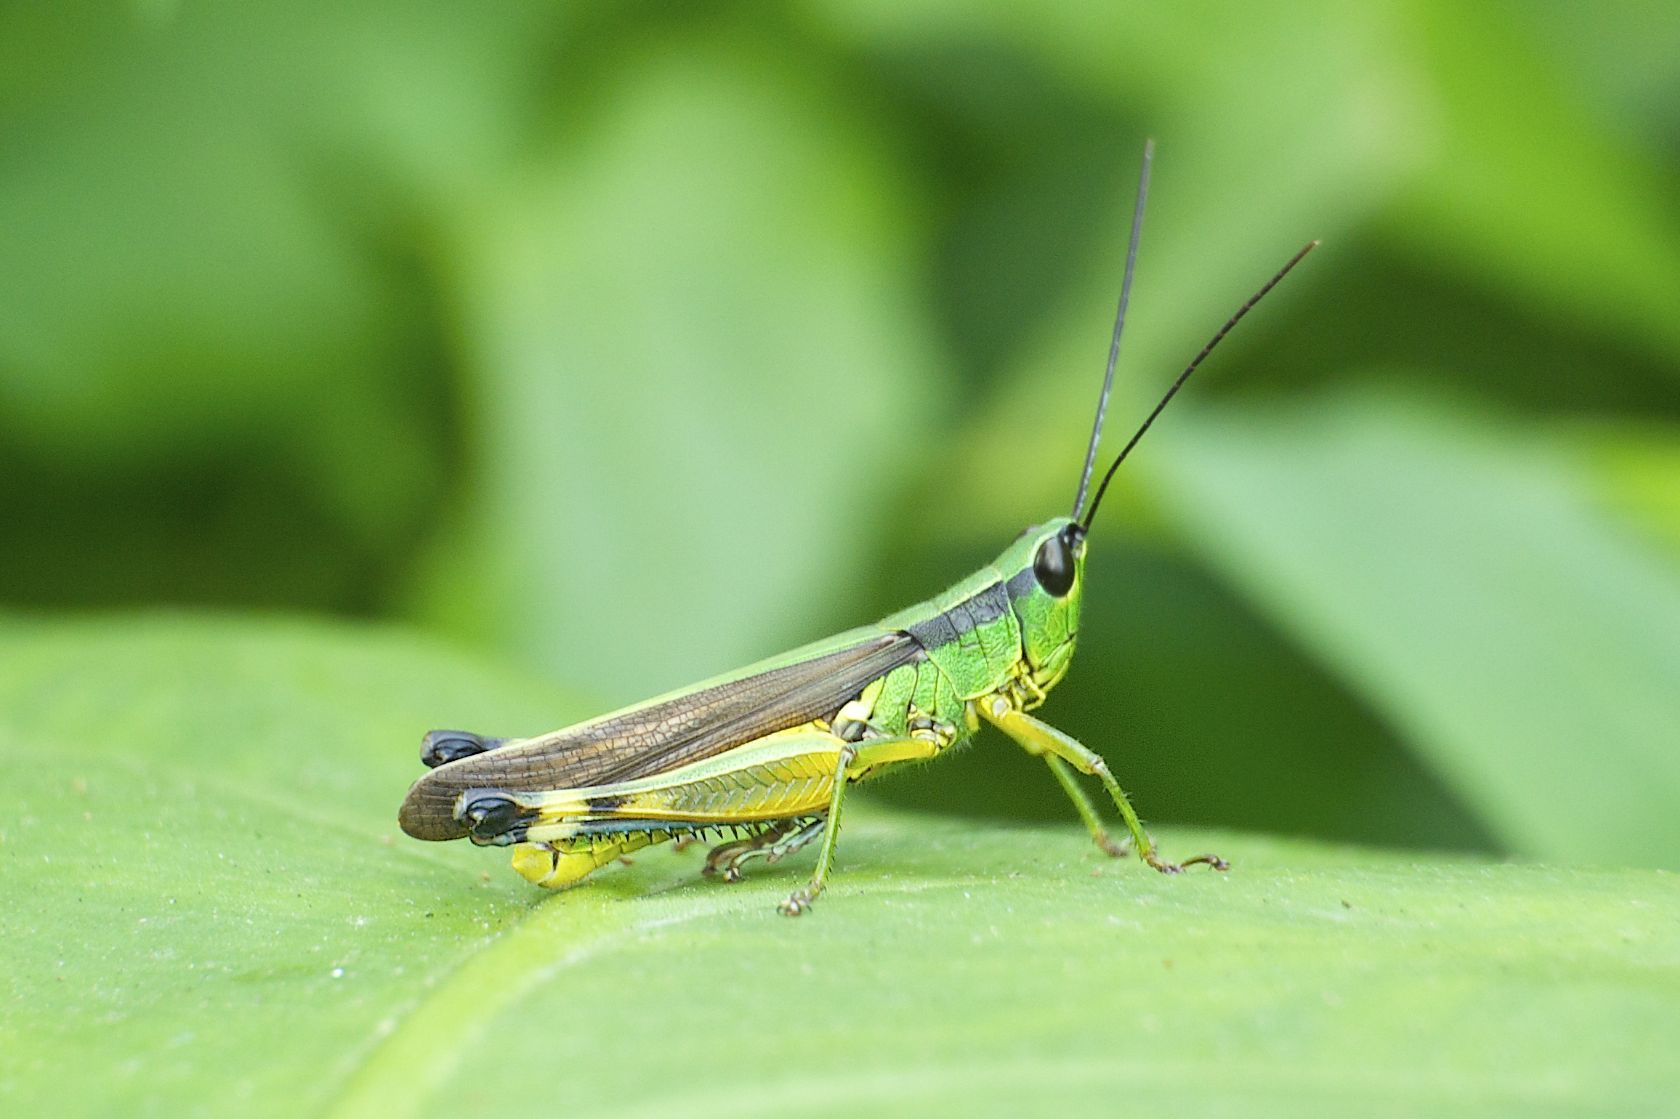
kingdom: Animalia
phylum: Arthropoda
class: Insecta
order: Orthoptera
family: Acrididae
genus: Ceracris
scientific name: Ceracris nigricornis
